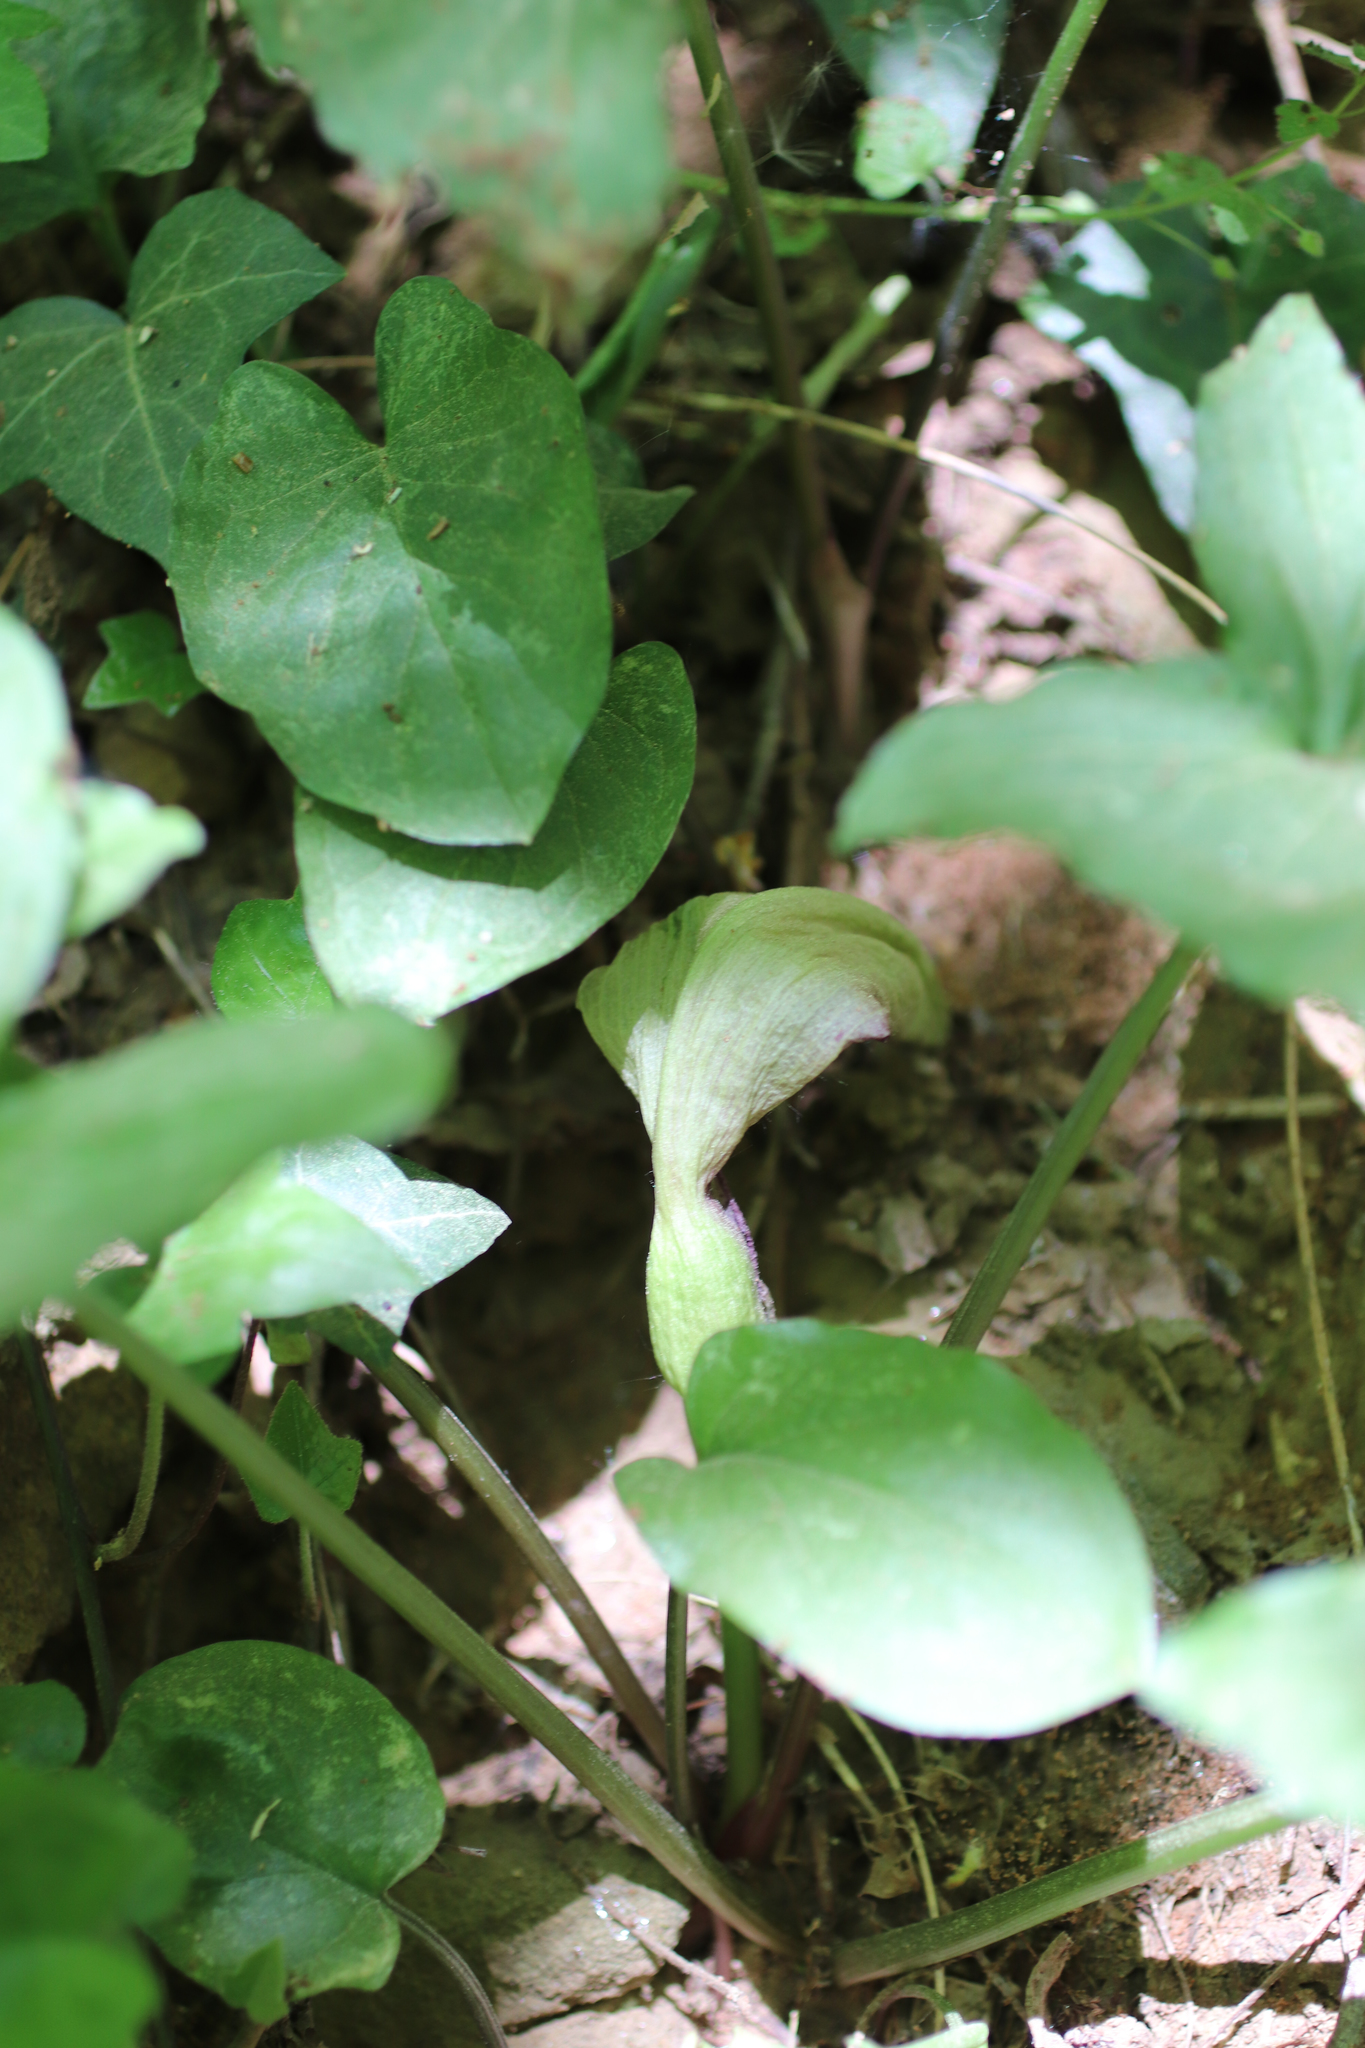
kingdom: Plantae
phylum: Tracheophyta
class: Liliopsida
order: Alismatales
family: Araceae
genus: Arum
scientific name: Arum maculatum
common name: Lords-and-ladies
